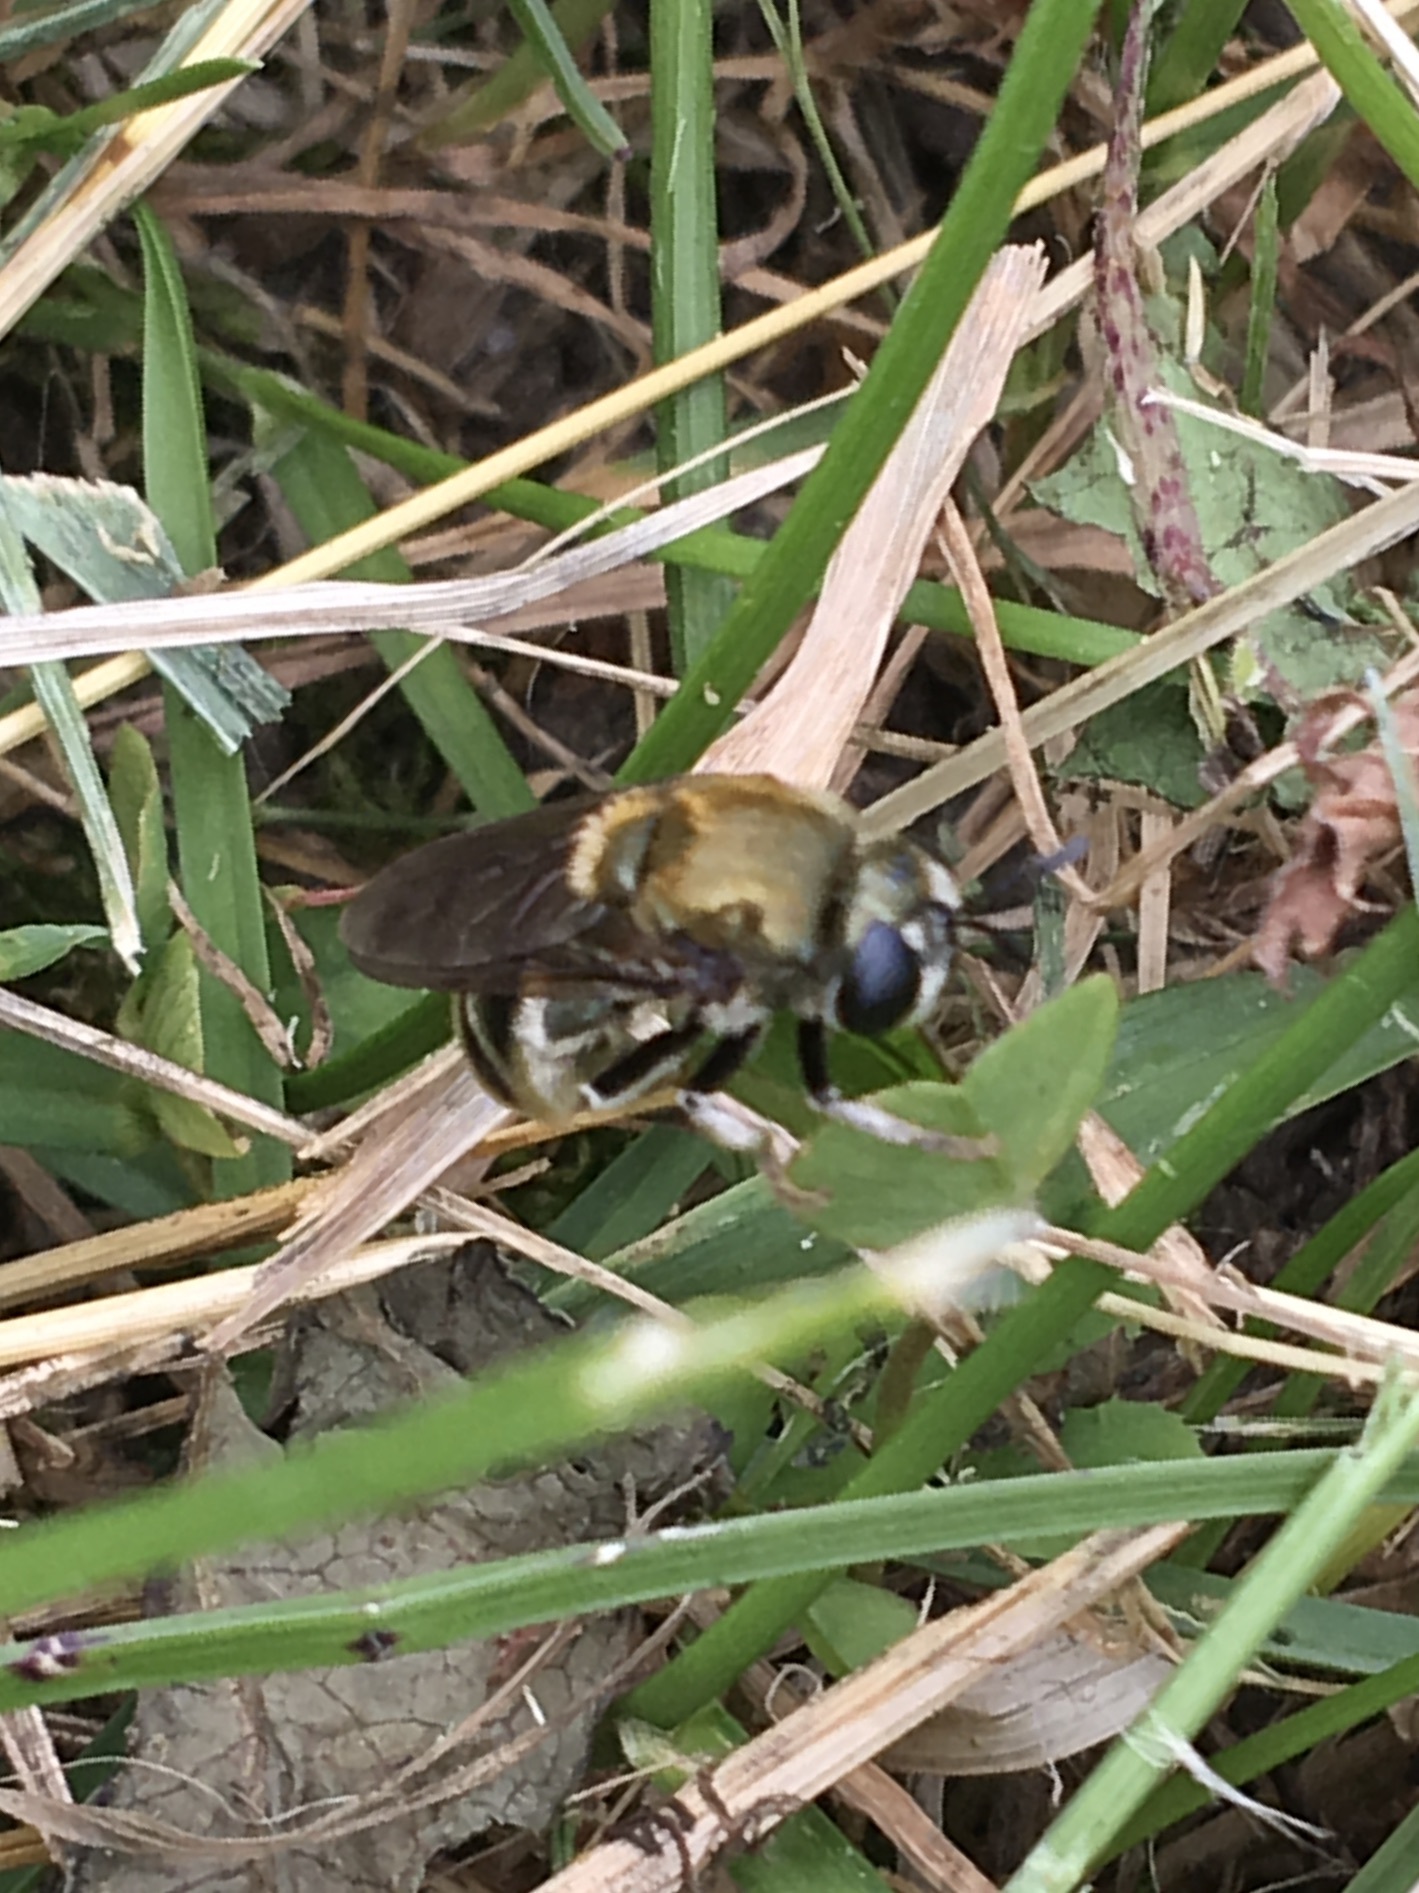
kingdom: Animalia
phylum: Arthropoda
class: Insecta
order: Diptera
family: Syrphidae
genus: Microdon
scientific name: Microdon manitobensis
